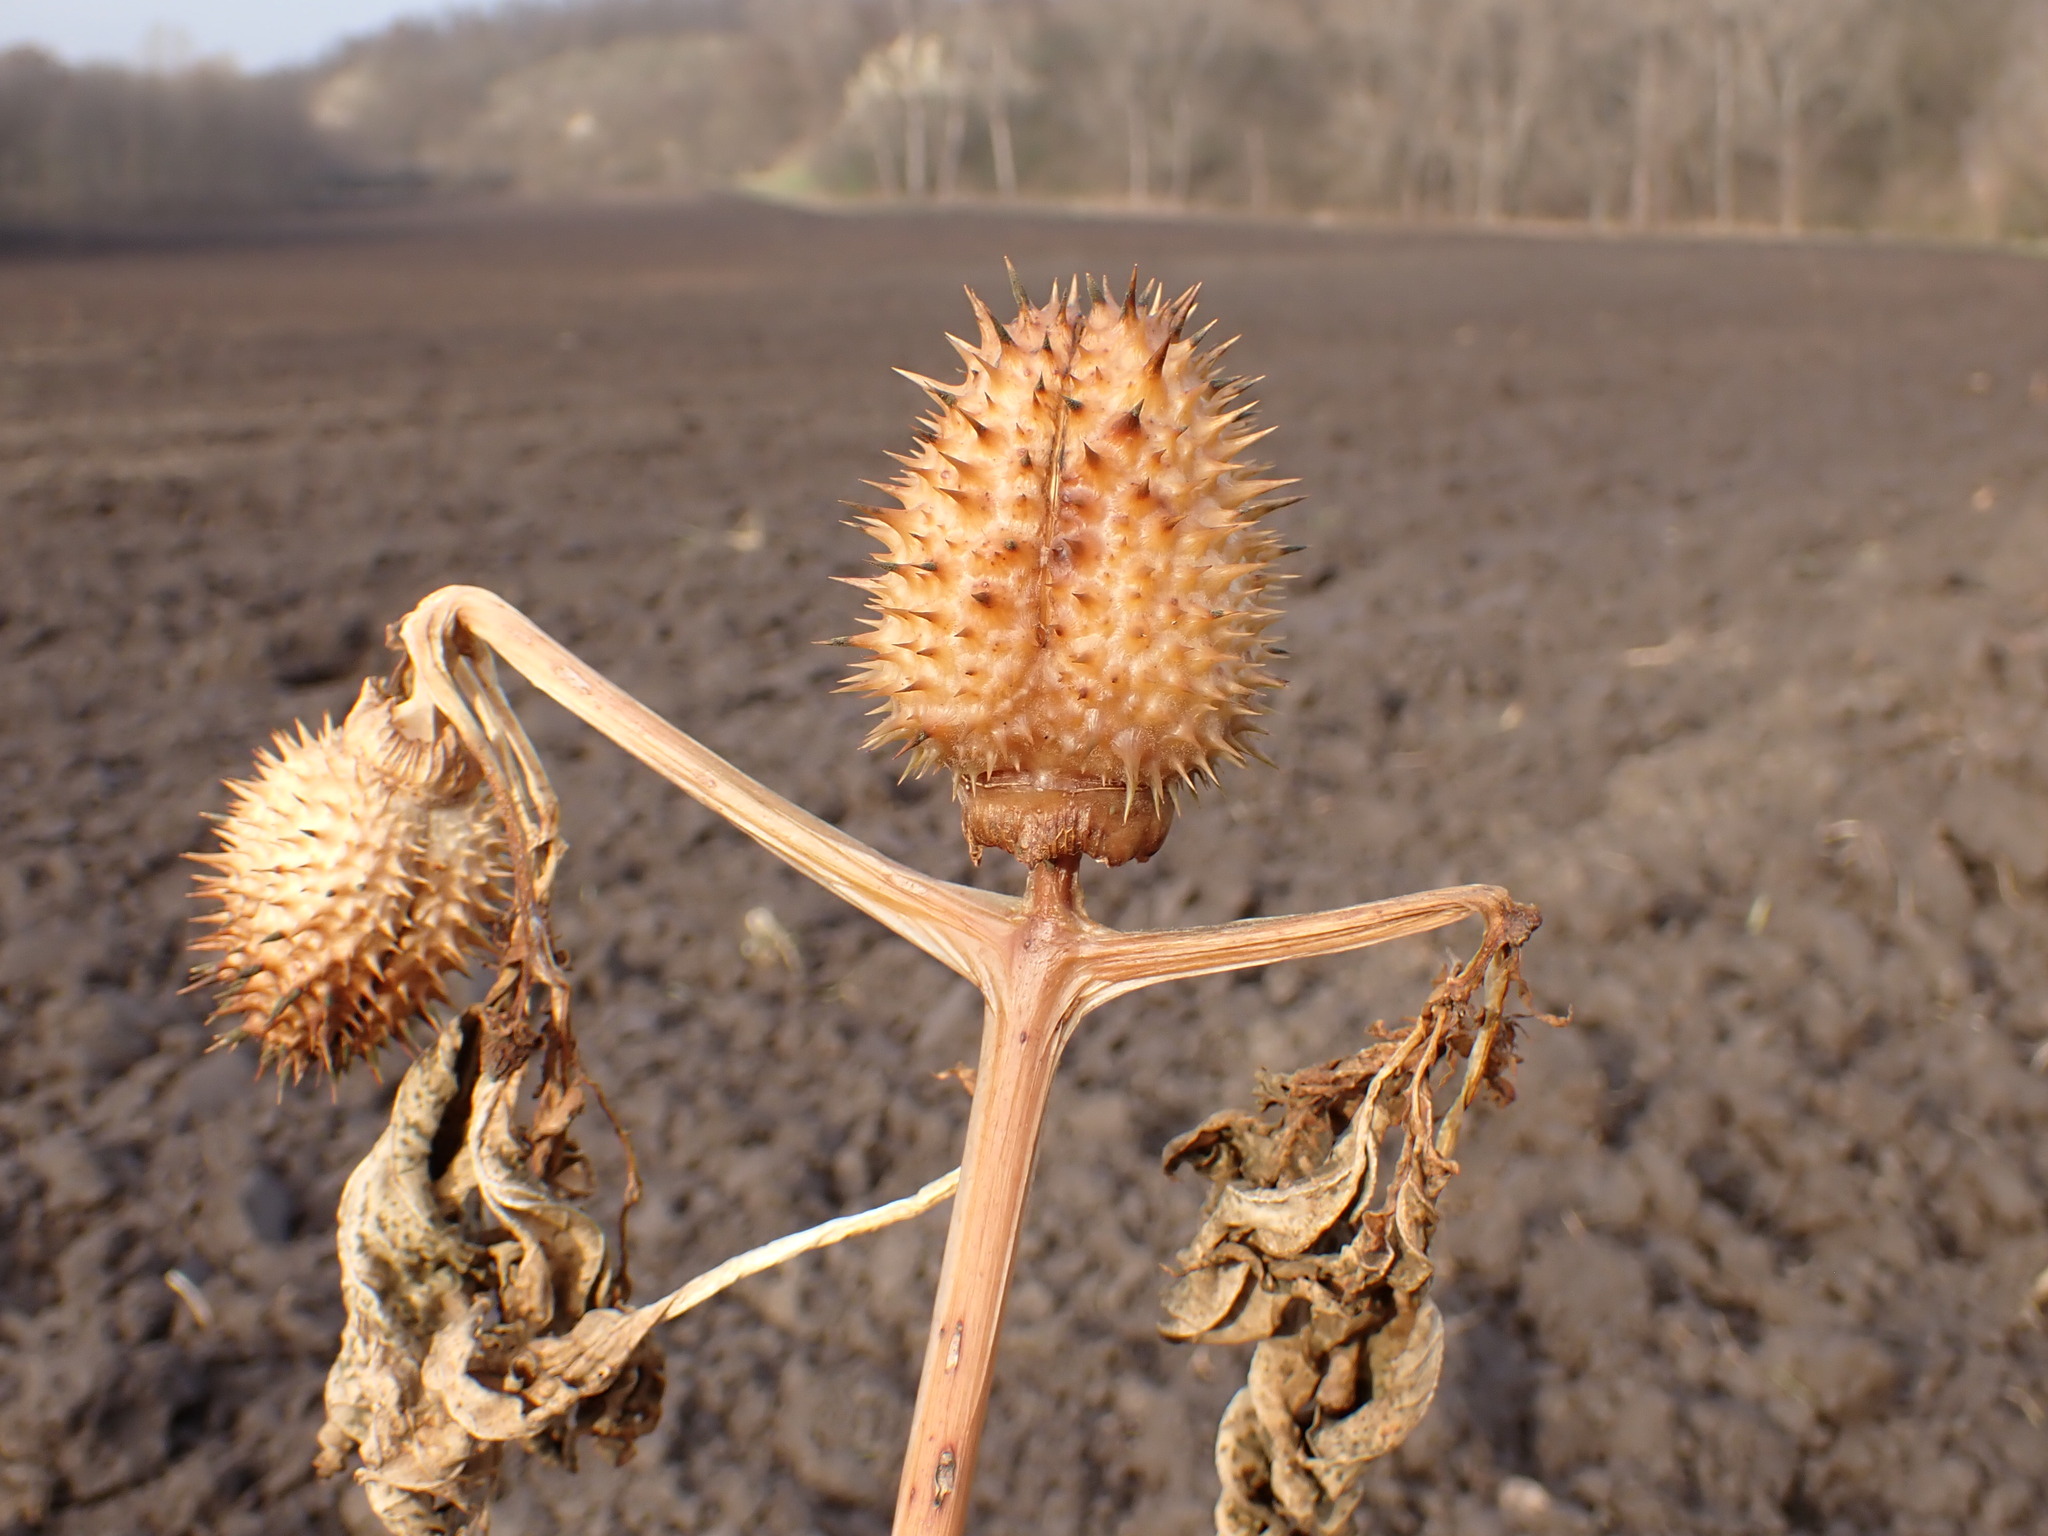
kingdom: Plantae
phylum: Tracheophyta
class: Magnoliopsida
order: Solanales
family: Solanaceae
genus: Datura
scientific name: Datura stramonium
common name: Thorn-apple
